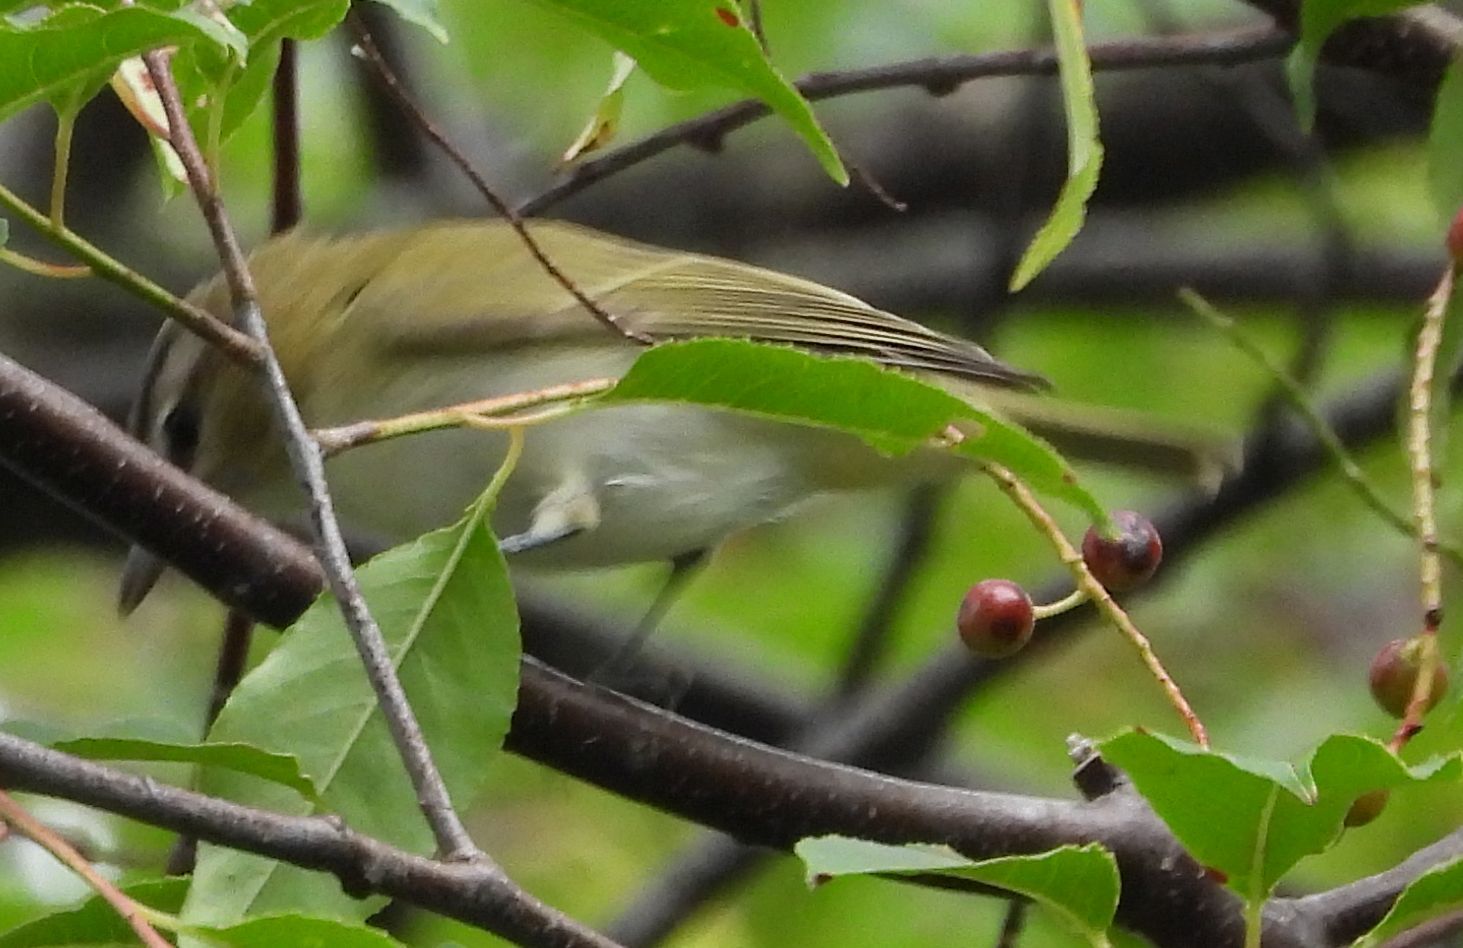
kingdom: Animalia
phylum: Chordata
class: Aves
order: Passeriformes
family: Vireonidae
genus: Vireo
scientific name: Vireo olivaceus
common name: Red-eyed vireo
